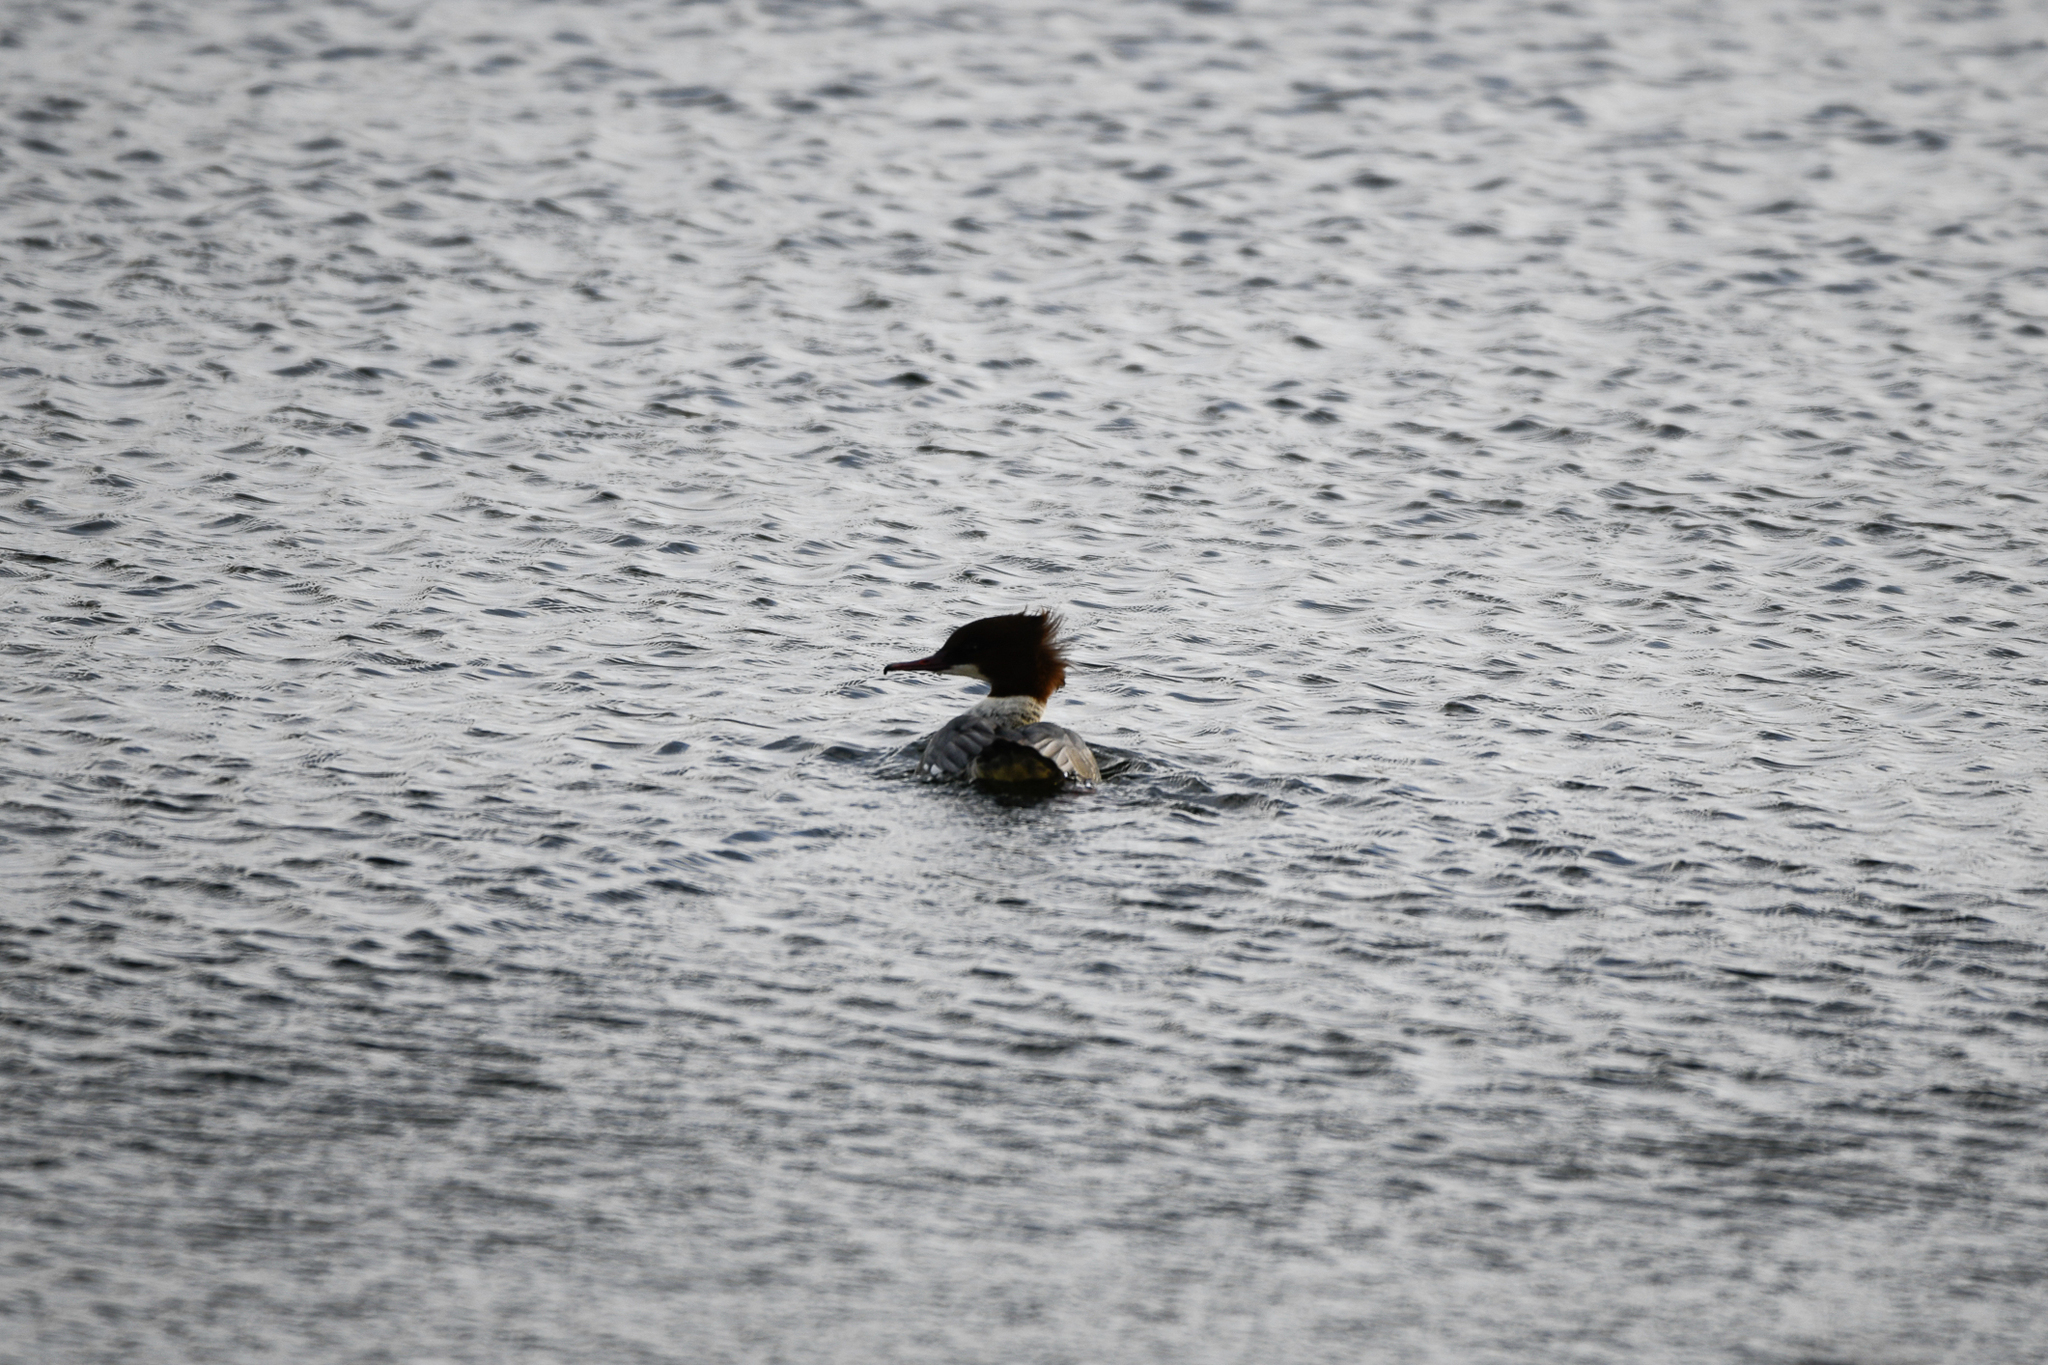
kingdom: Animalia
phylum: Chordata
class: Aves
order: Anseriformes
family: Anatidae
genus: Mergus
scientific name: Mergus merganser
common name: Common merganser
